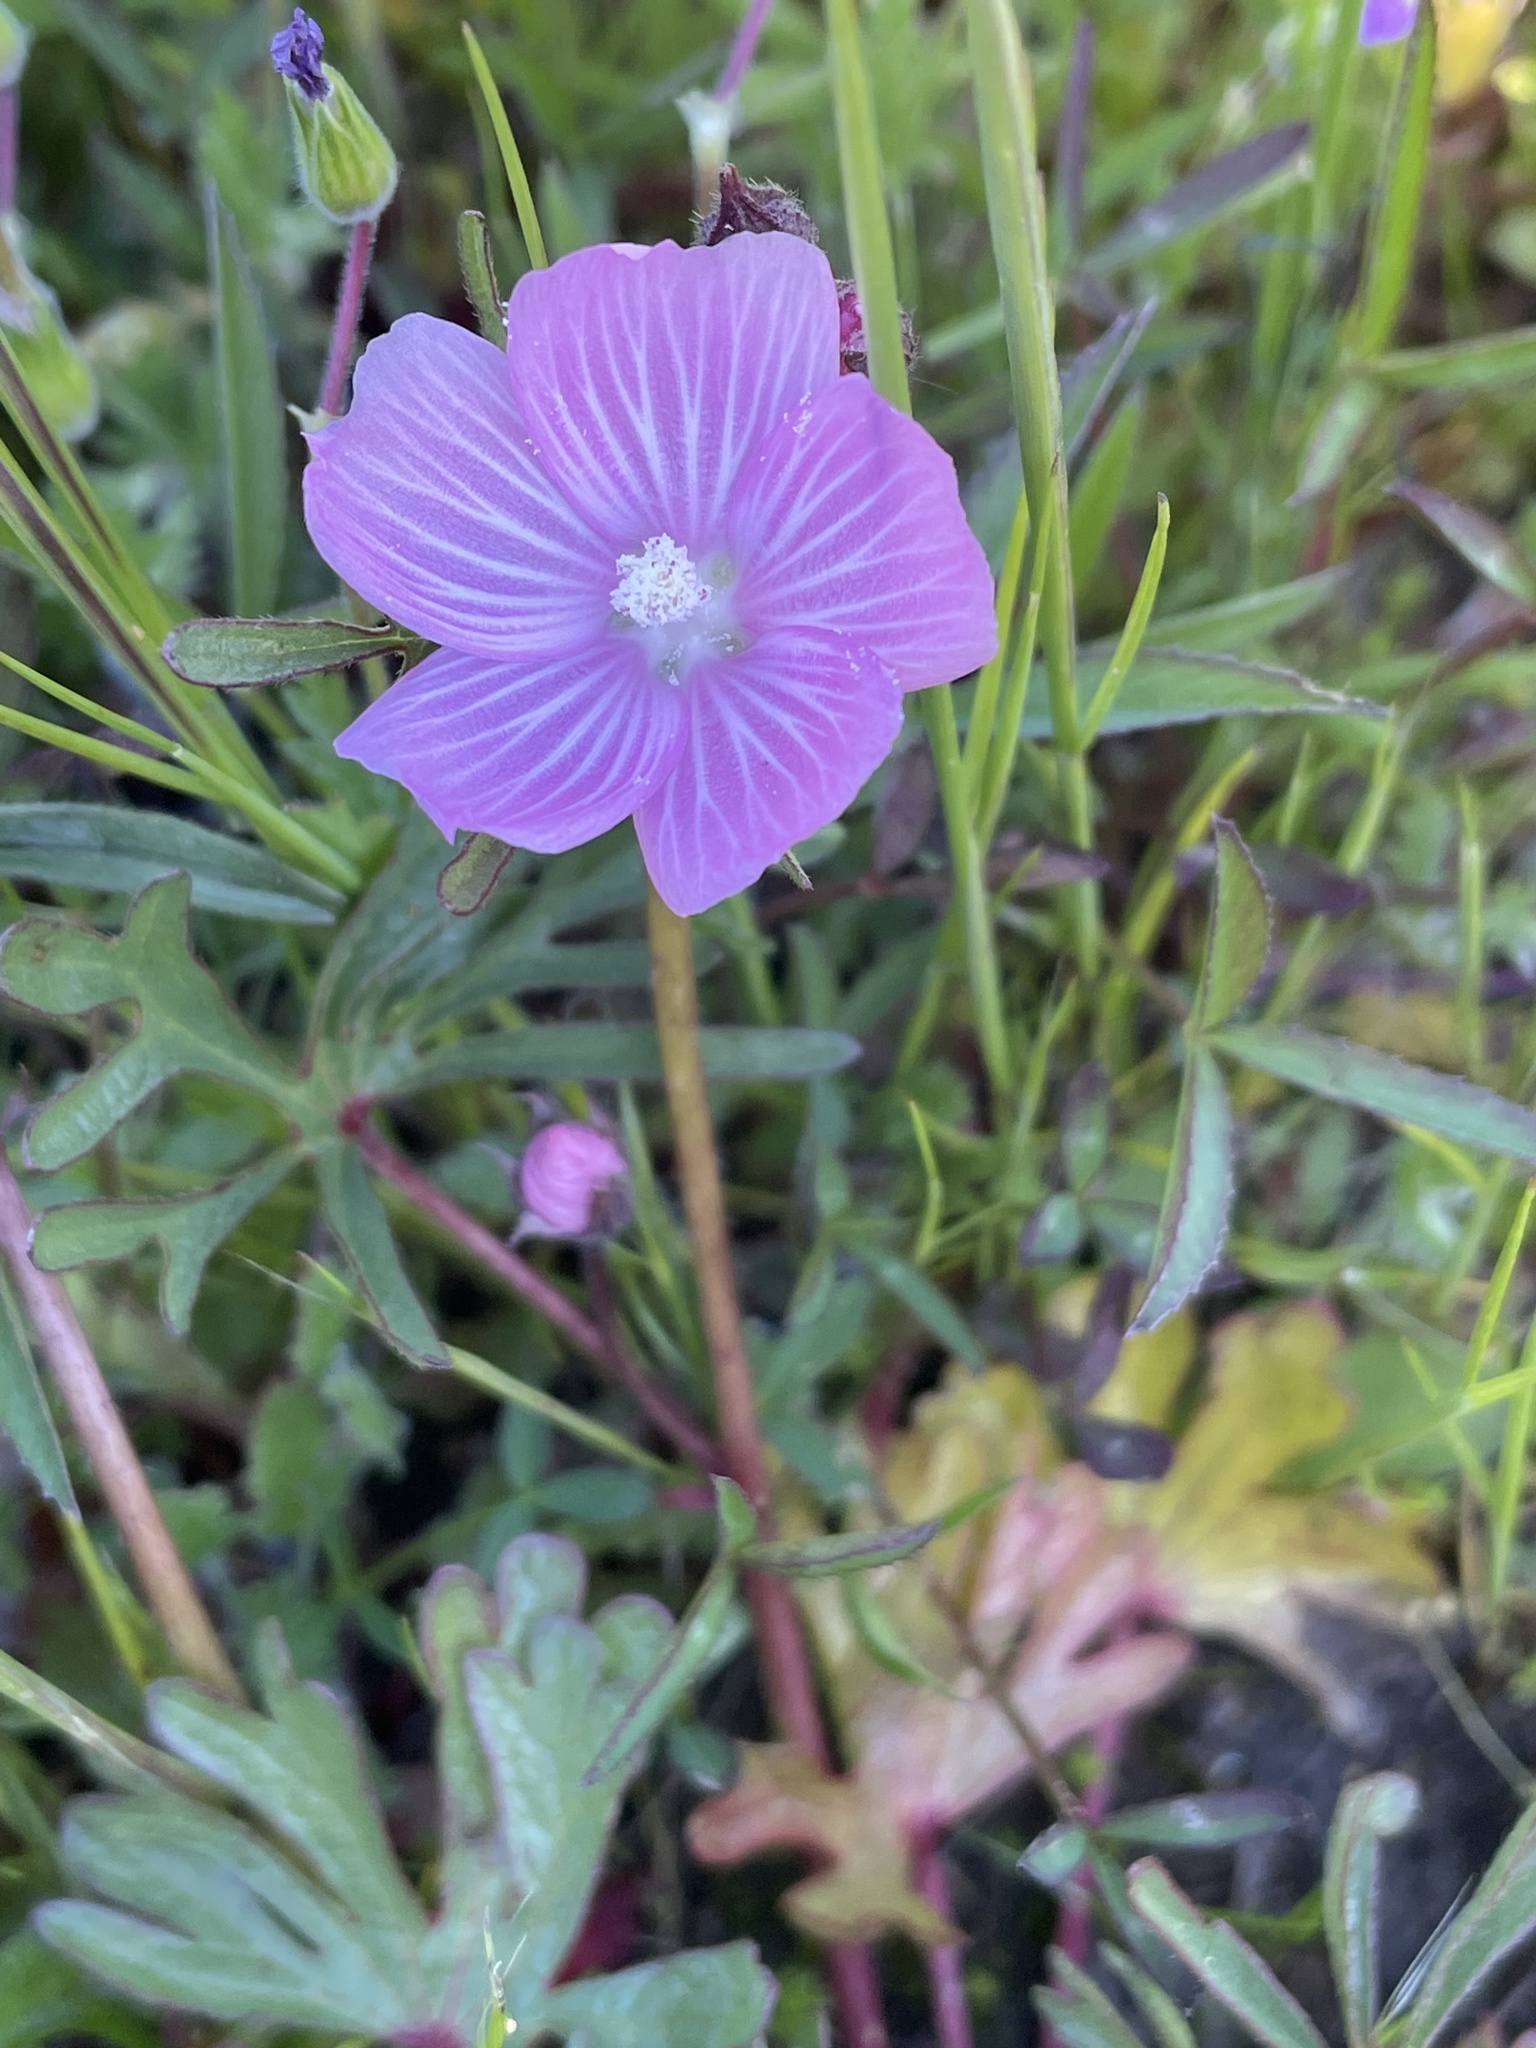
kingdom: Plantae
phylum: Tracheophyta
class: Magnoliopsida
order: Malvales
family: Malvaceae
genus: Sidalcea
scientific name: Sidalcea malviflora
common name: Greek mallow
